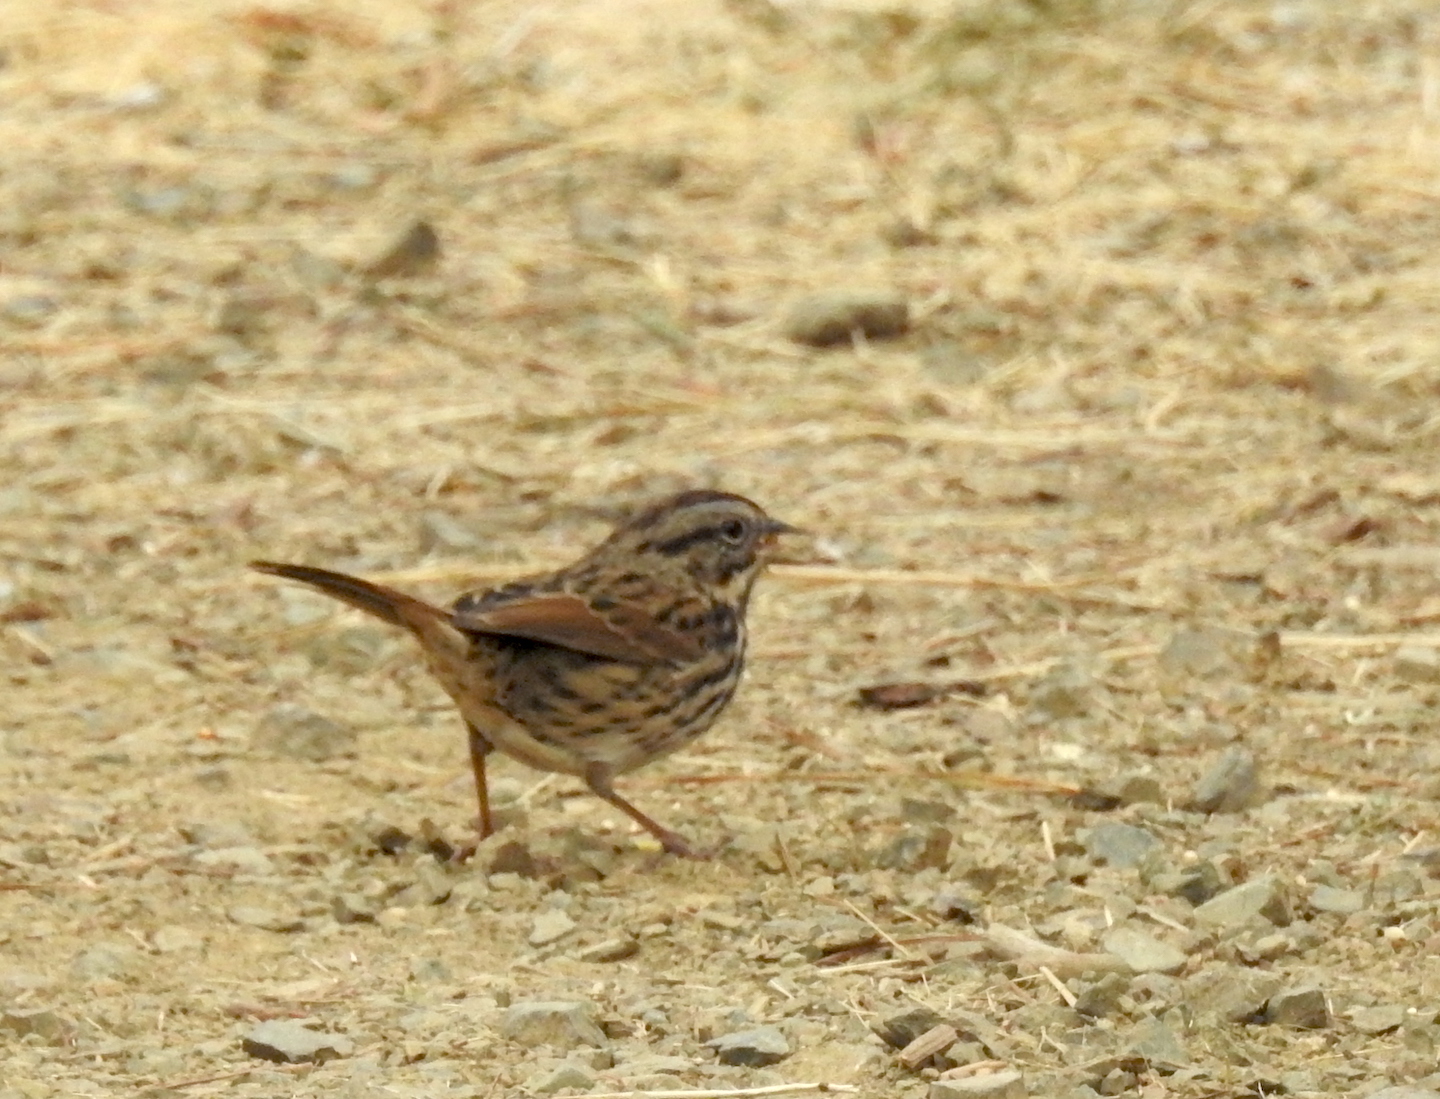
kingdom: Animalia
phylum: Chordata
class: Aves
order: Passeriformes
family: Passerellidae
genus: Melospiza
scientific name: Melospiza melodia
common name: Song sparrow
